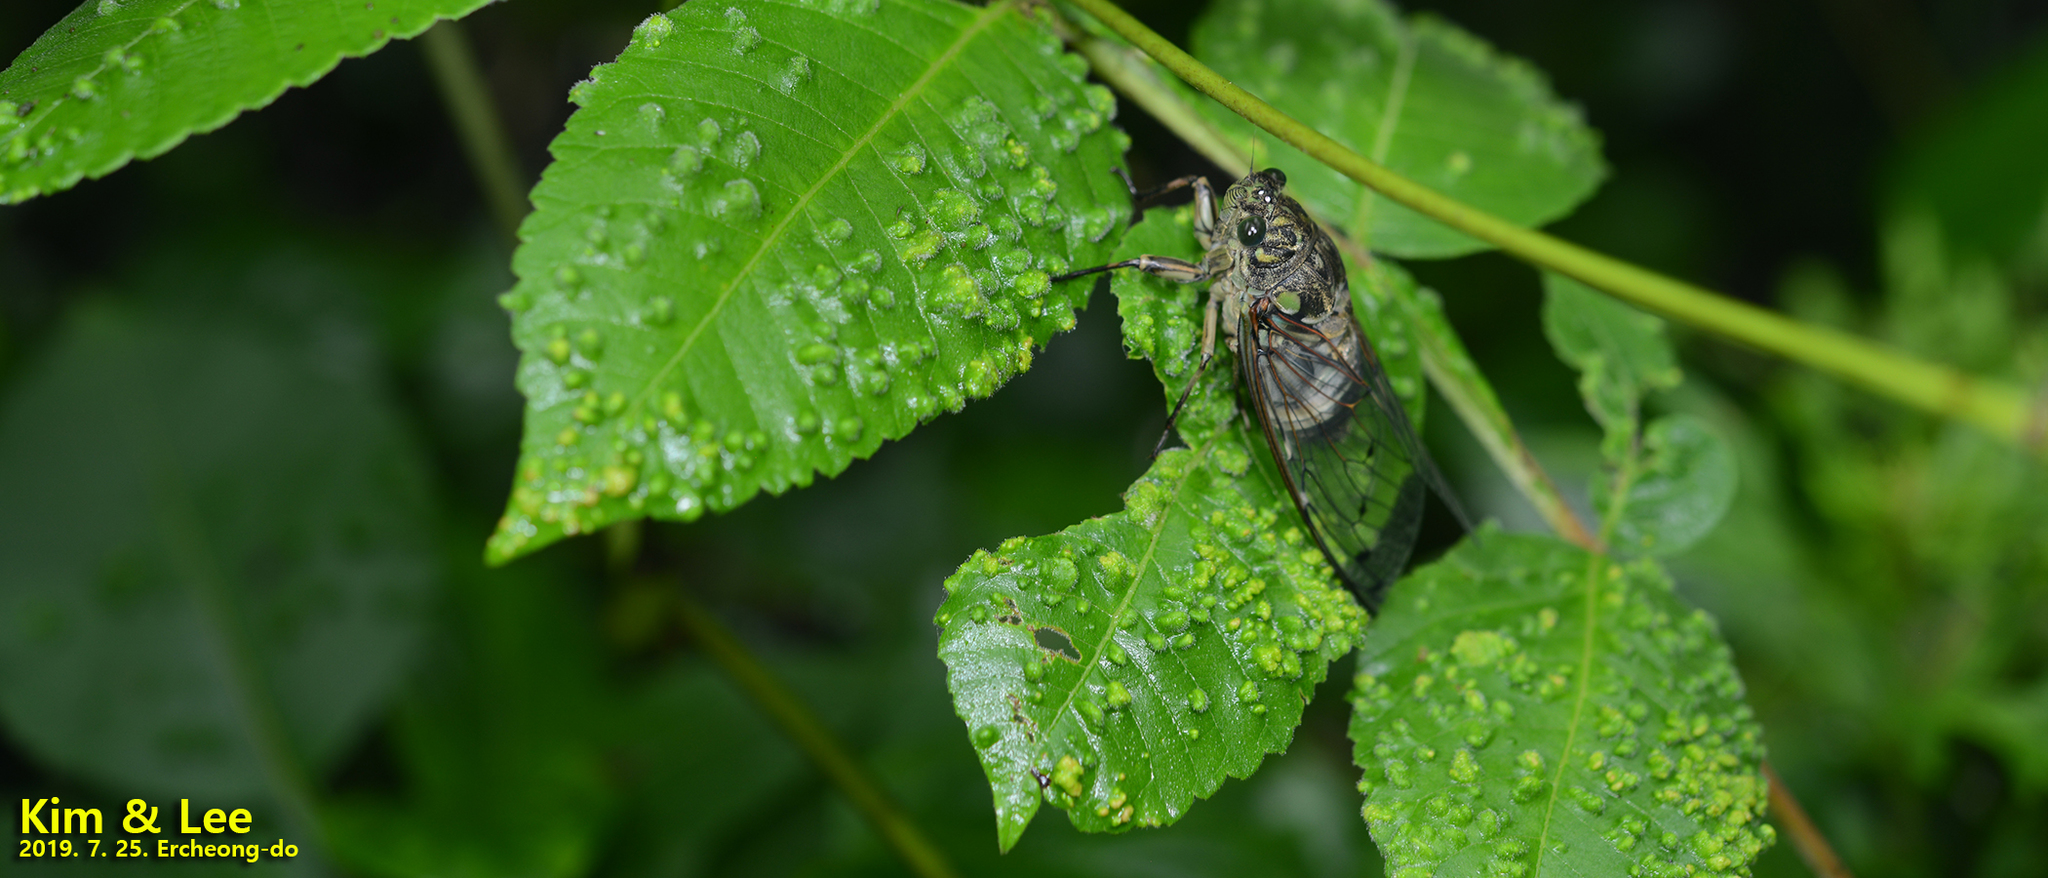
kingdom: Animalia
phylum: Arthropoda
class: Insecta
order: Hemiptera
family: Cicadidae
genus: Hyalessa
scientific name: Hyalessa maculaticollis
